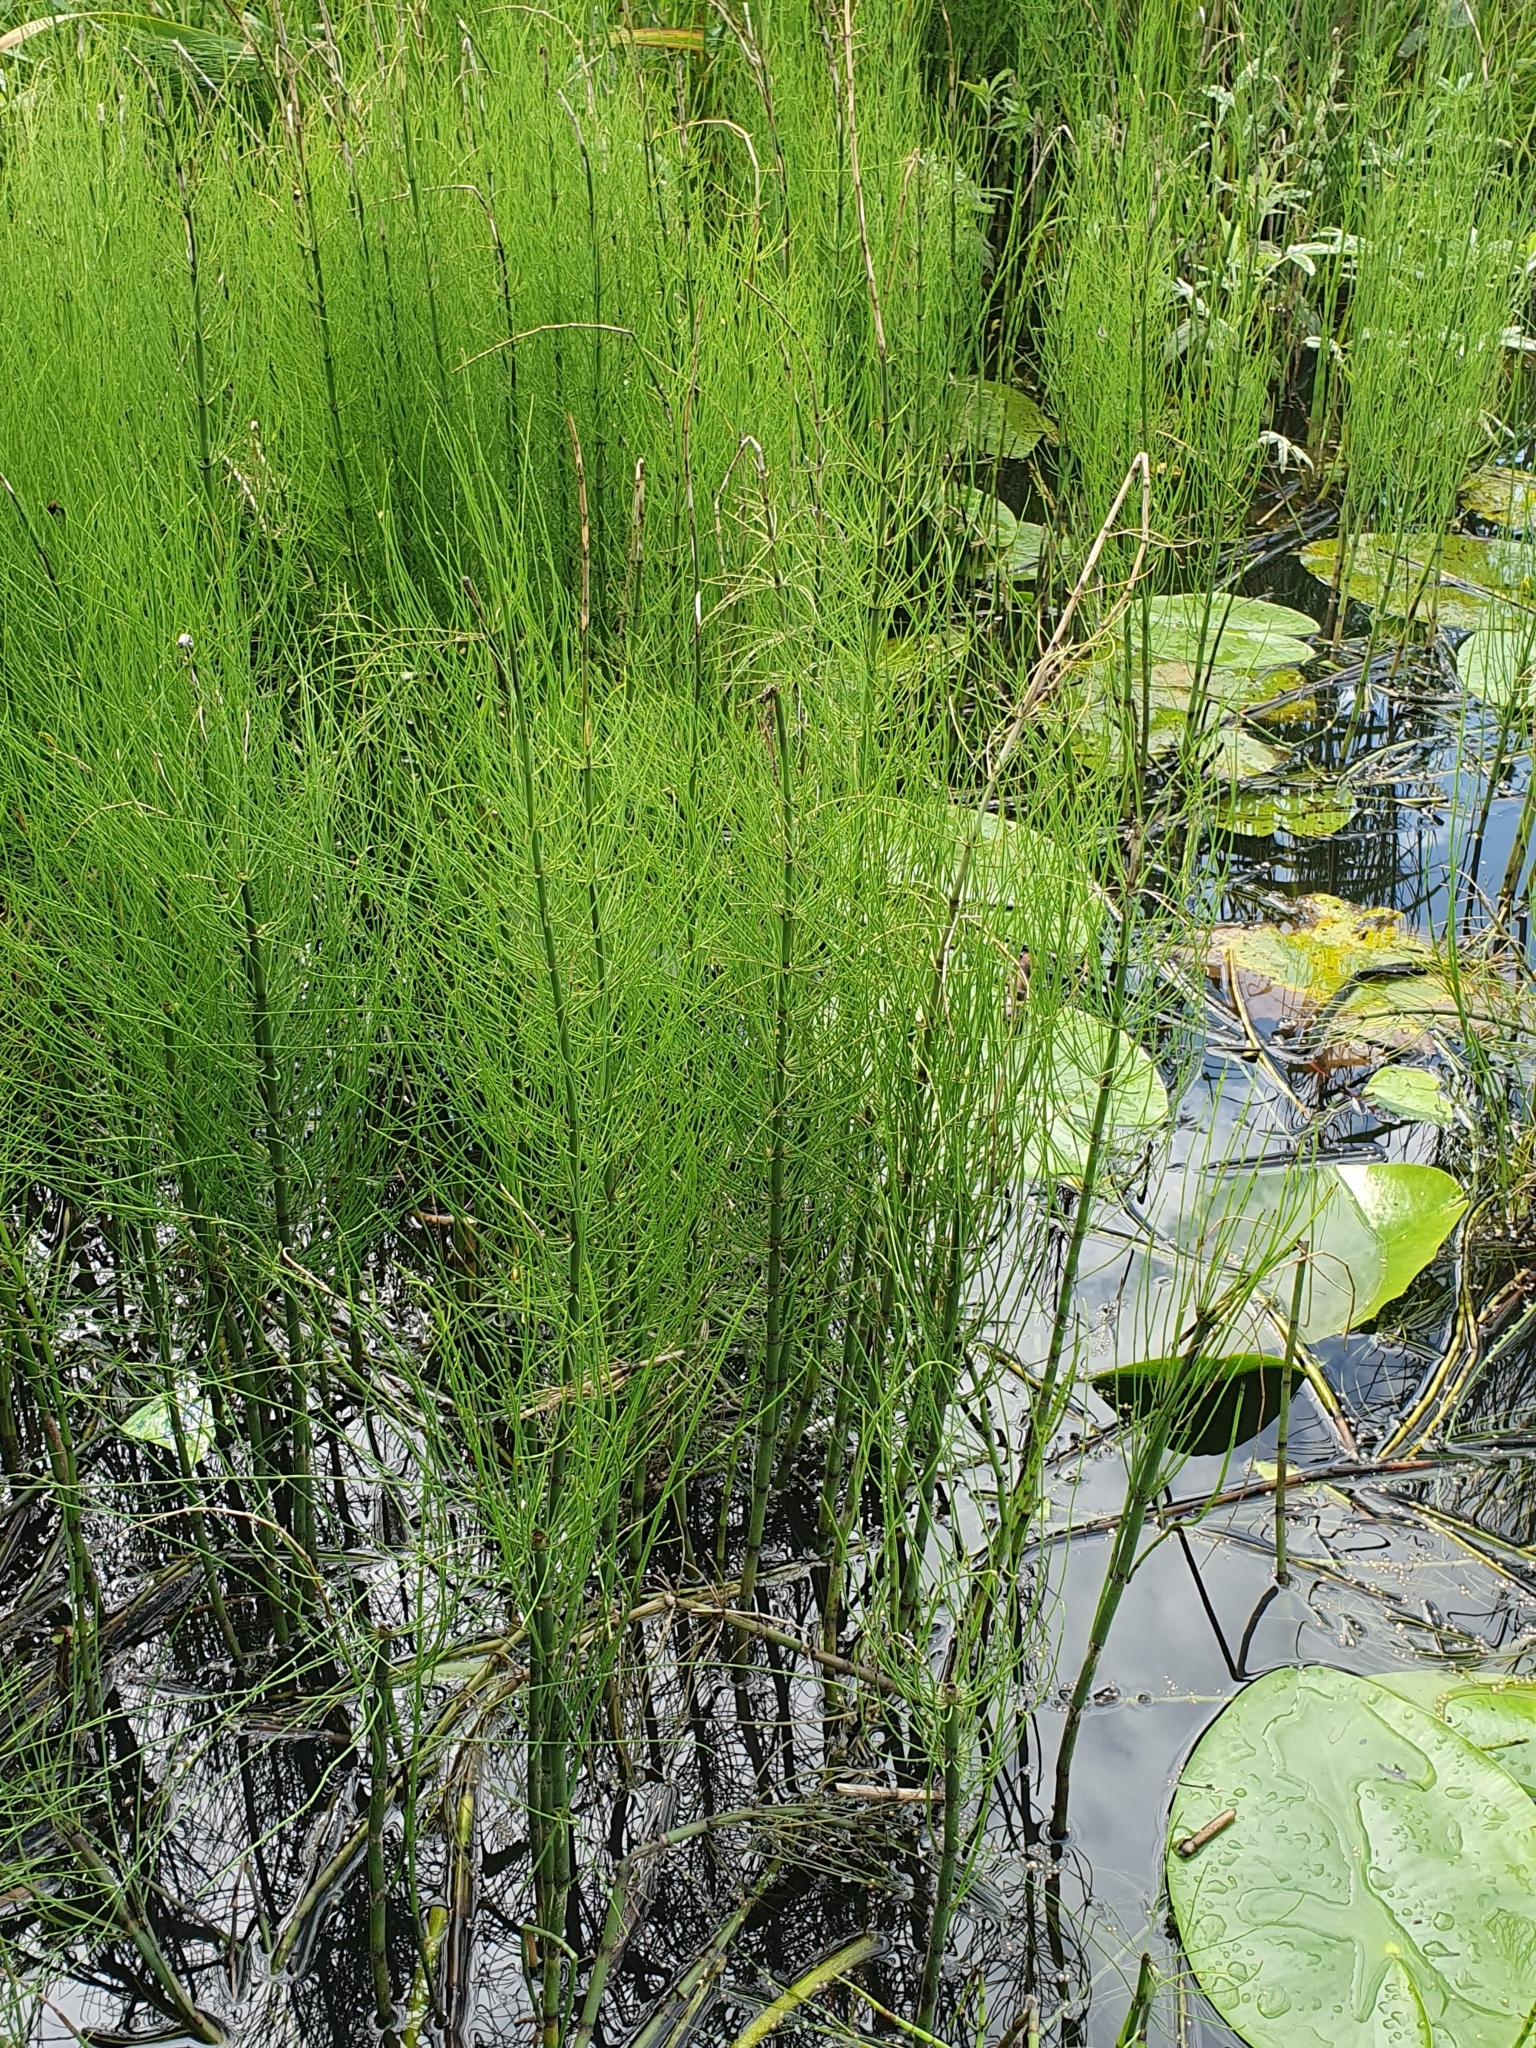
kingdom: Plantae
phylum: Tracheophyta
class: Polypodiopsida
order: Equisetales
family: Equisetaceae
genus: Equisetum
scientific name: Equisetum fluviatile
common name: Water horsetail
